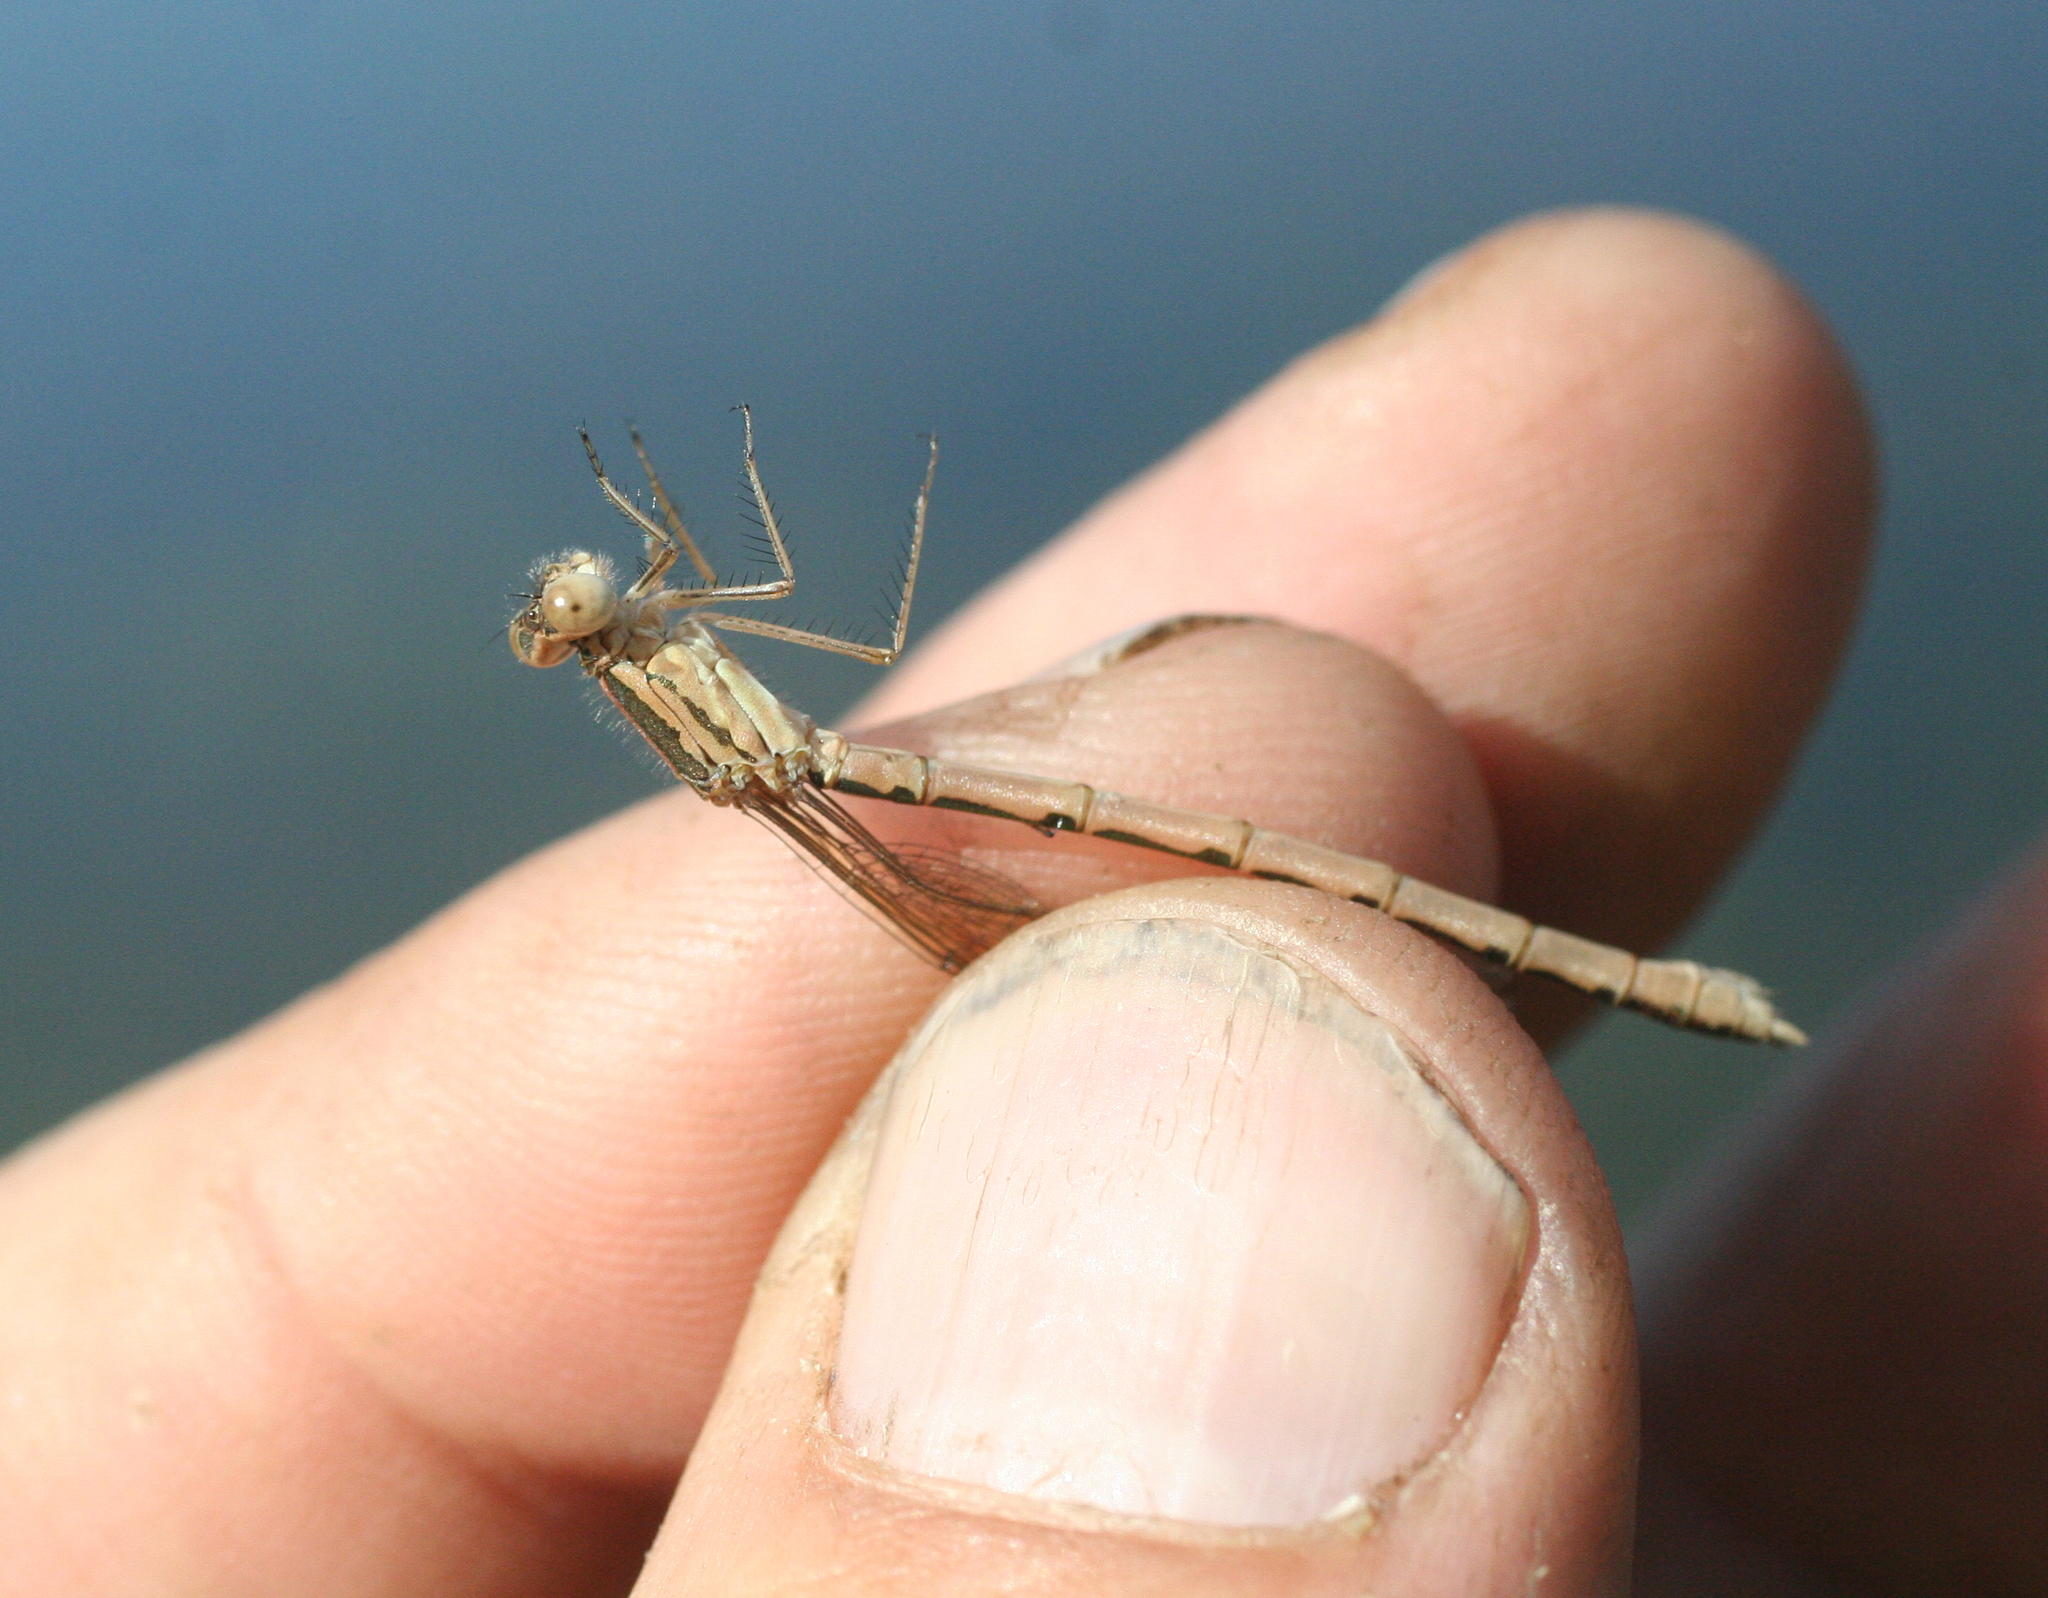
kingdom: Animalia
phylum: Arthropoda
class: Insecta
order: Odonata
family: Lestidae
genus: Sympecma
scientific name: Sympecma paedisca
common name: Siberian winter damsel
